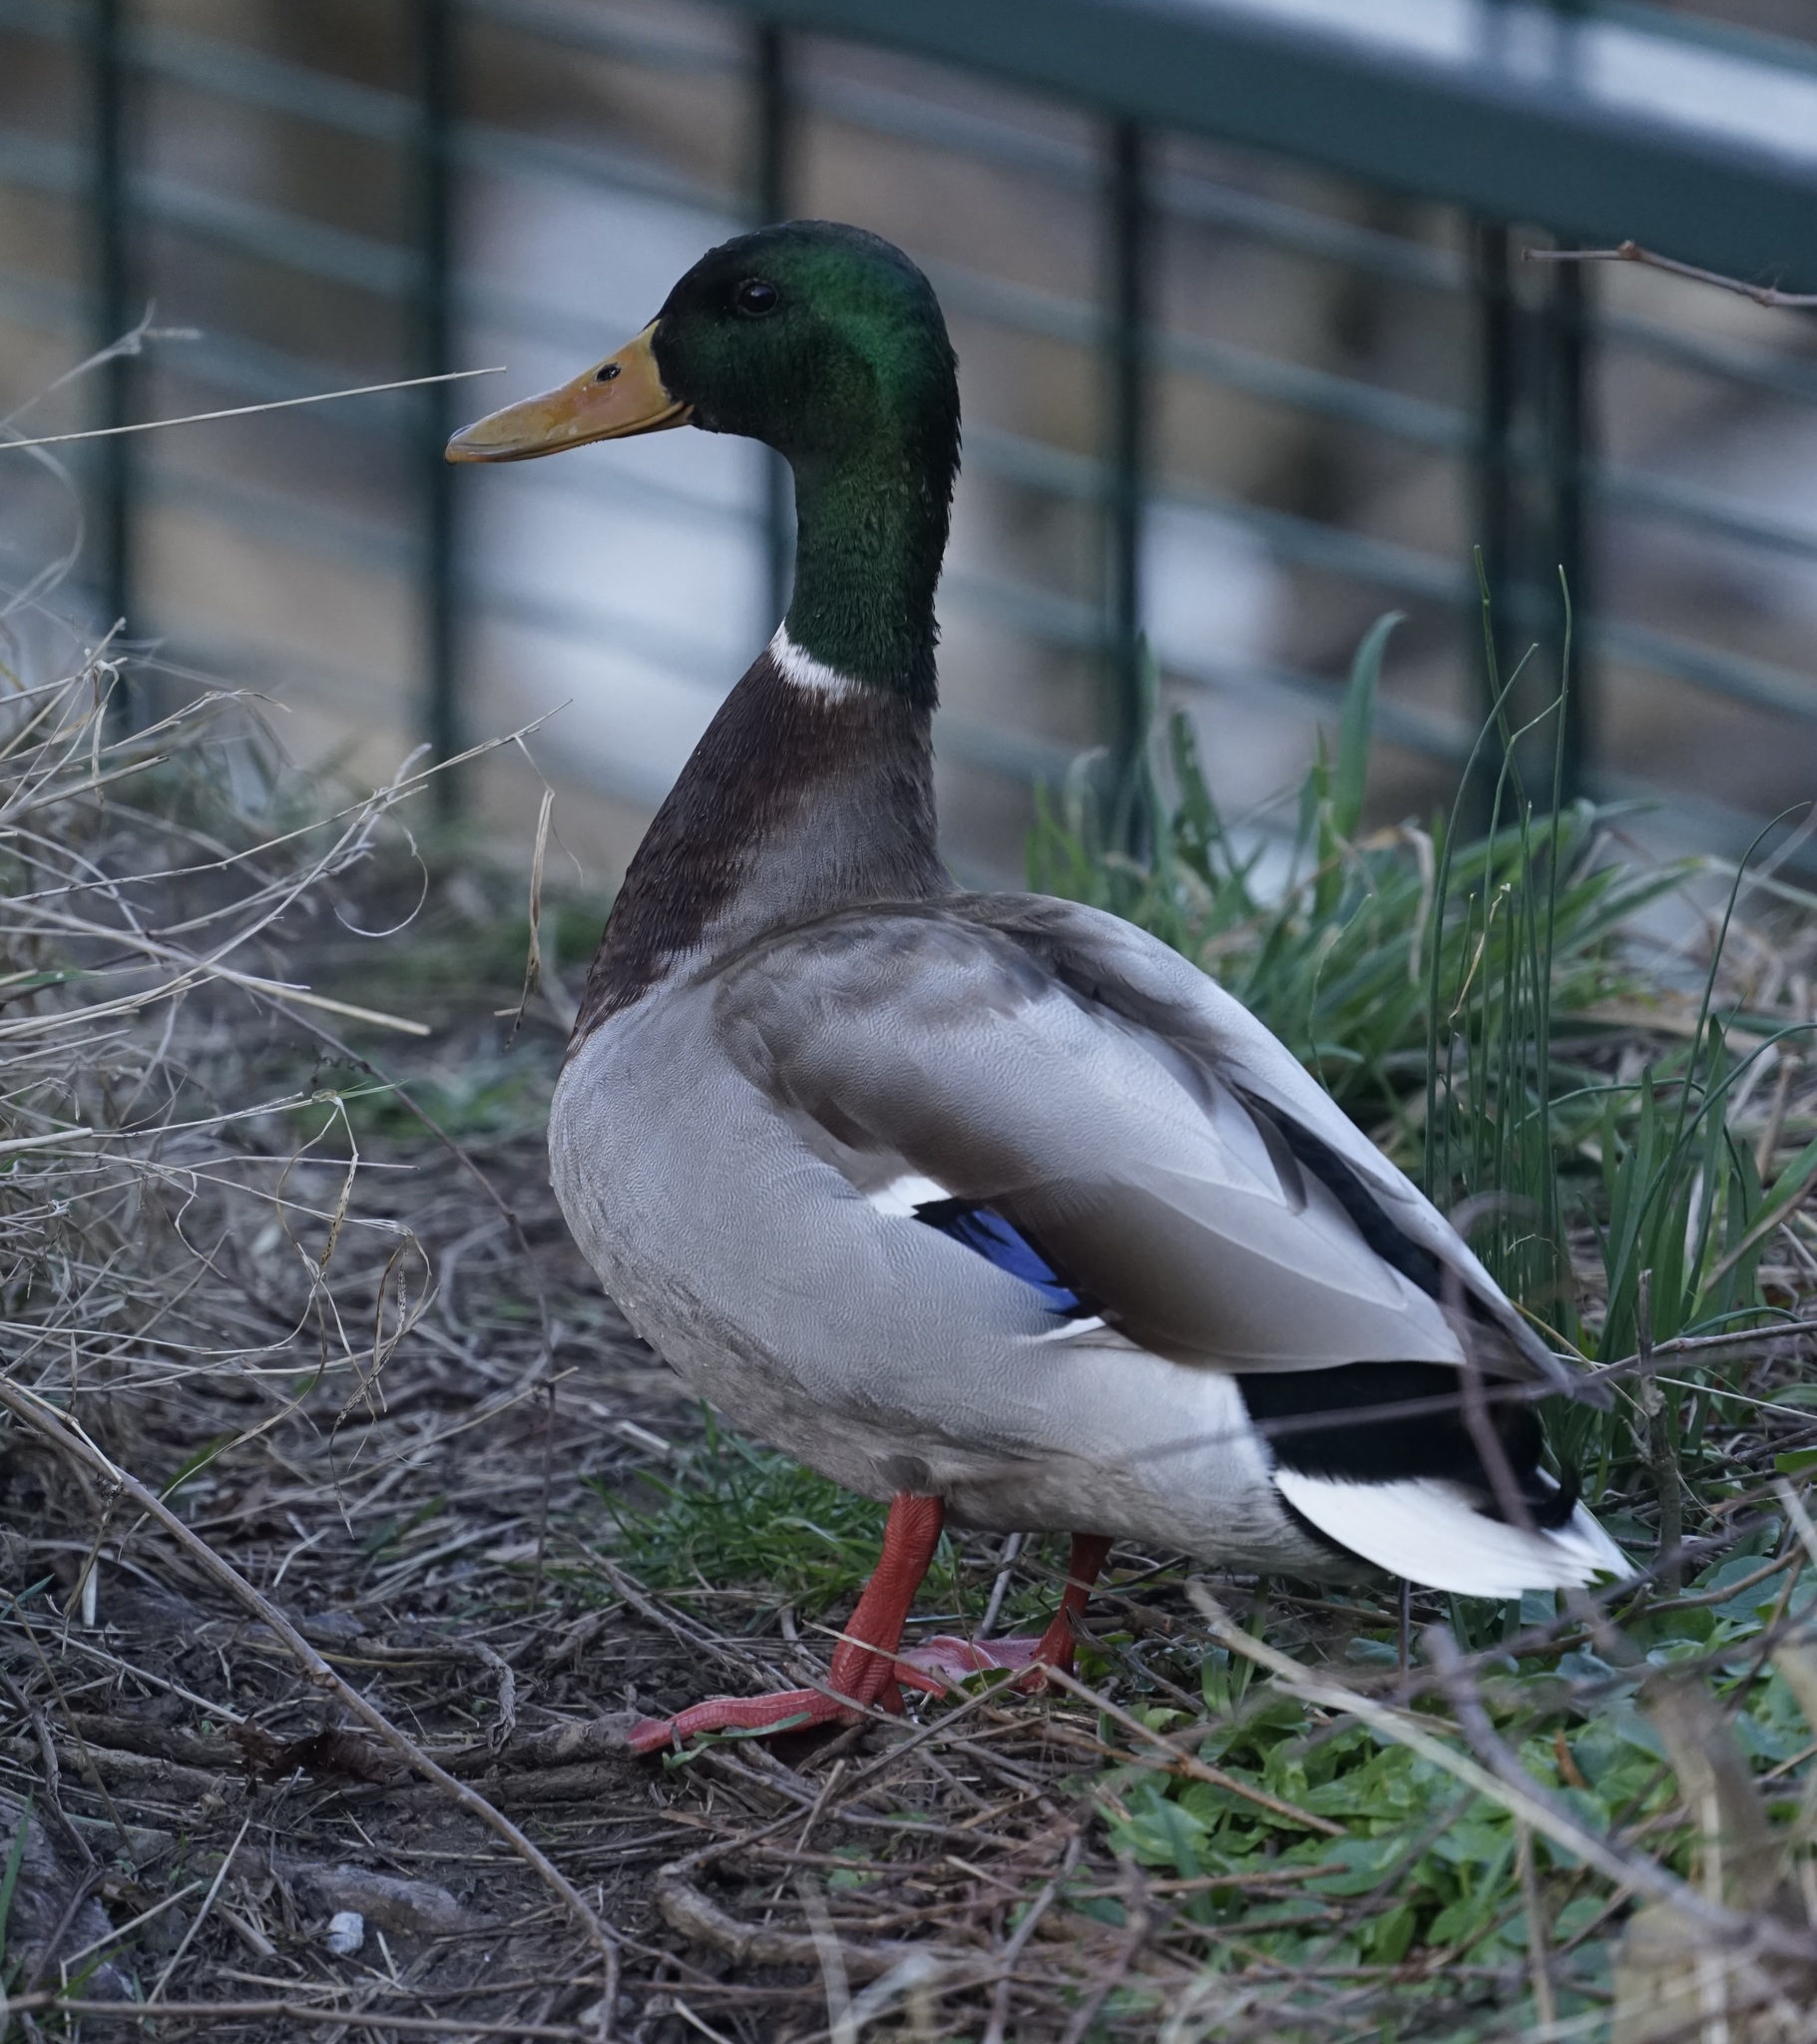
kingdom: Animalia
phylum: Chordata
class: Aves
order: Anseriformes
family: Anatidae
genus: Anas
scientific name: Anas platyrhynchos
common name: Mallard
